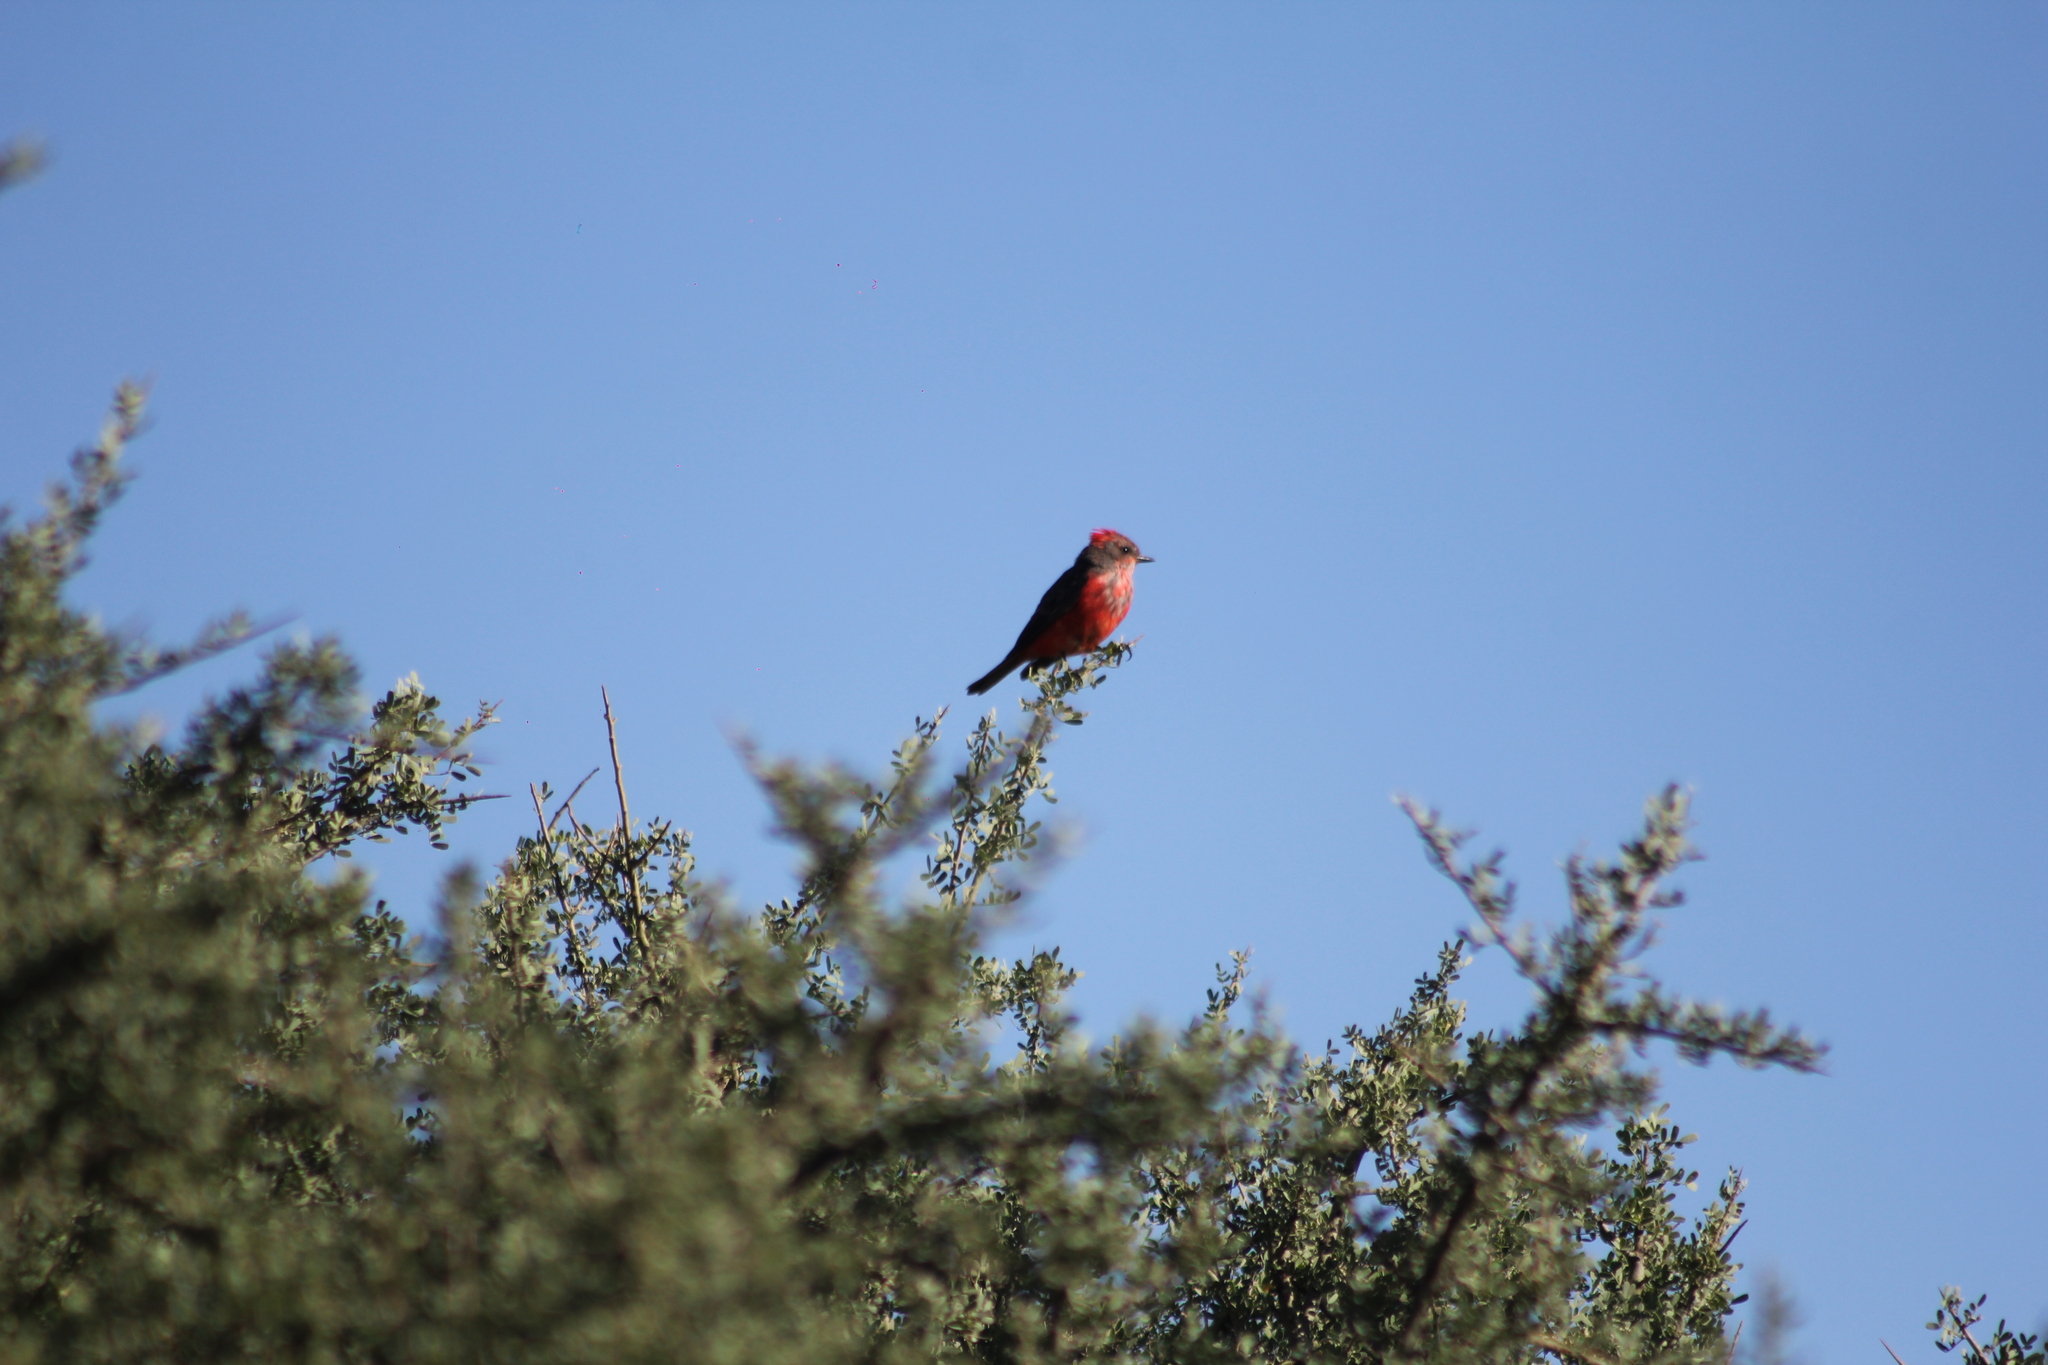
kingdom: Animalia
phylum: Chordata
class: Aves
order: Passeriformes
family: Tyrannidae
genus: Pyrocephalus
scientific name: Pyrocephalus rubinus
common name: Vermilion flycatcher
